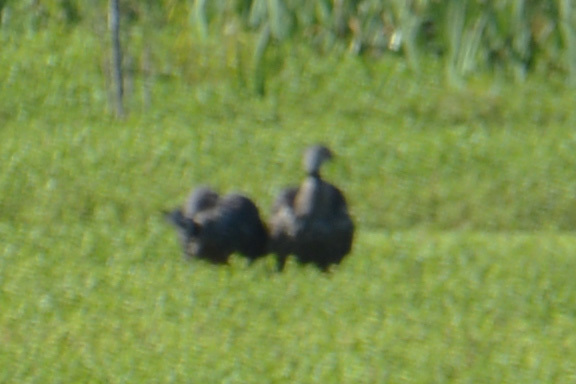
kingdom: Animalia
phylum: Chordata
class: Aves
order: Anseriformes
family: Anhimidae
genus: Chauna
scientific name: Chauna torquata
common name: Southern screamer
